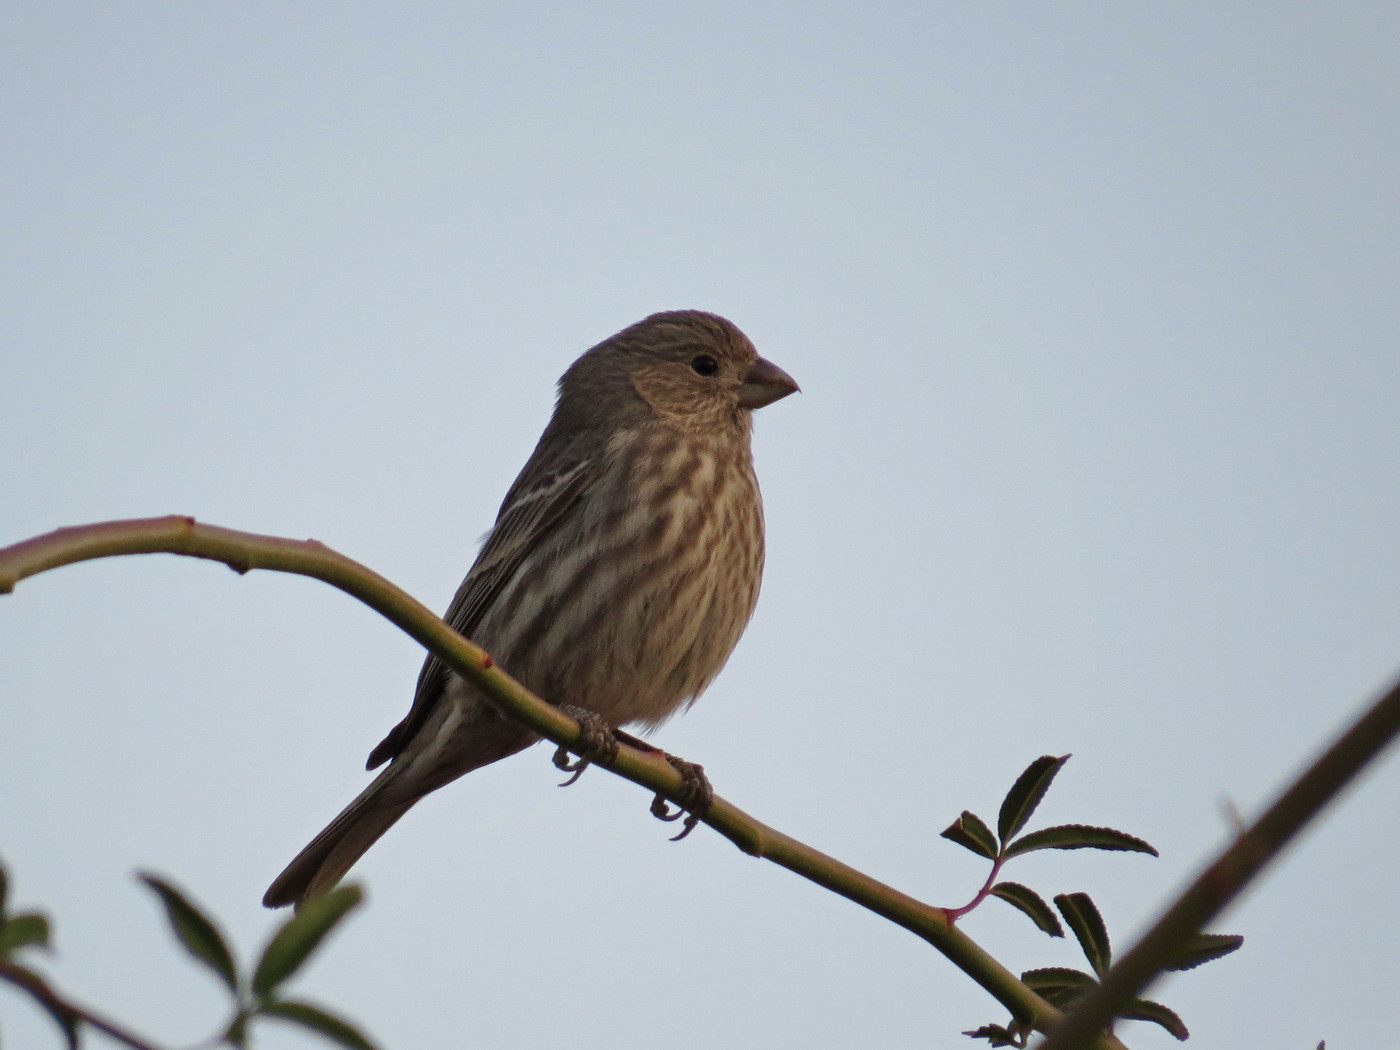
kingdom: Animalia
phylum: Chordata
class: Aves
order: Passeriformes
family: Fringillidae
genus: Haemorhous
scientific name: Haemorhous mexicanus
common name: House finch
